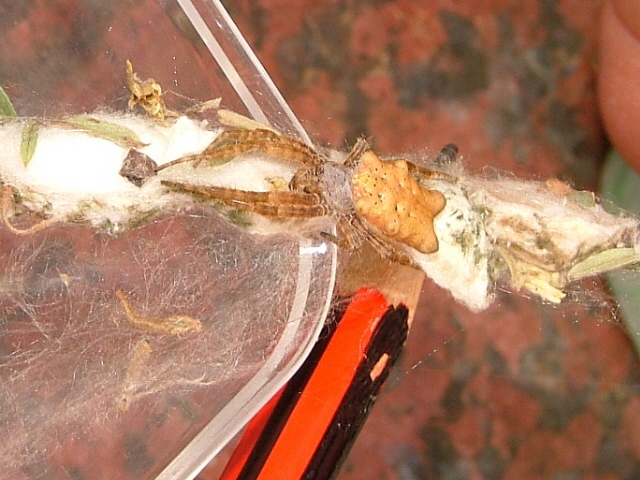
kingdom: Animalia
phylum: Arthropoda
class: Arachnida
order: Araneae
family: Araneidae
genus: Cyrtophora
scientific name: Cyrtophora citricola
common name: Orb weavers
